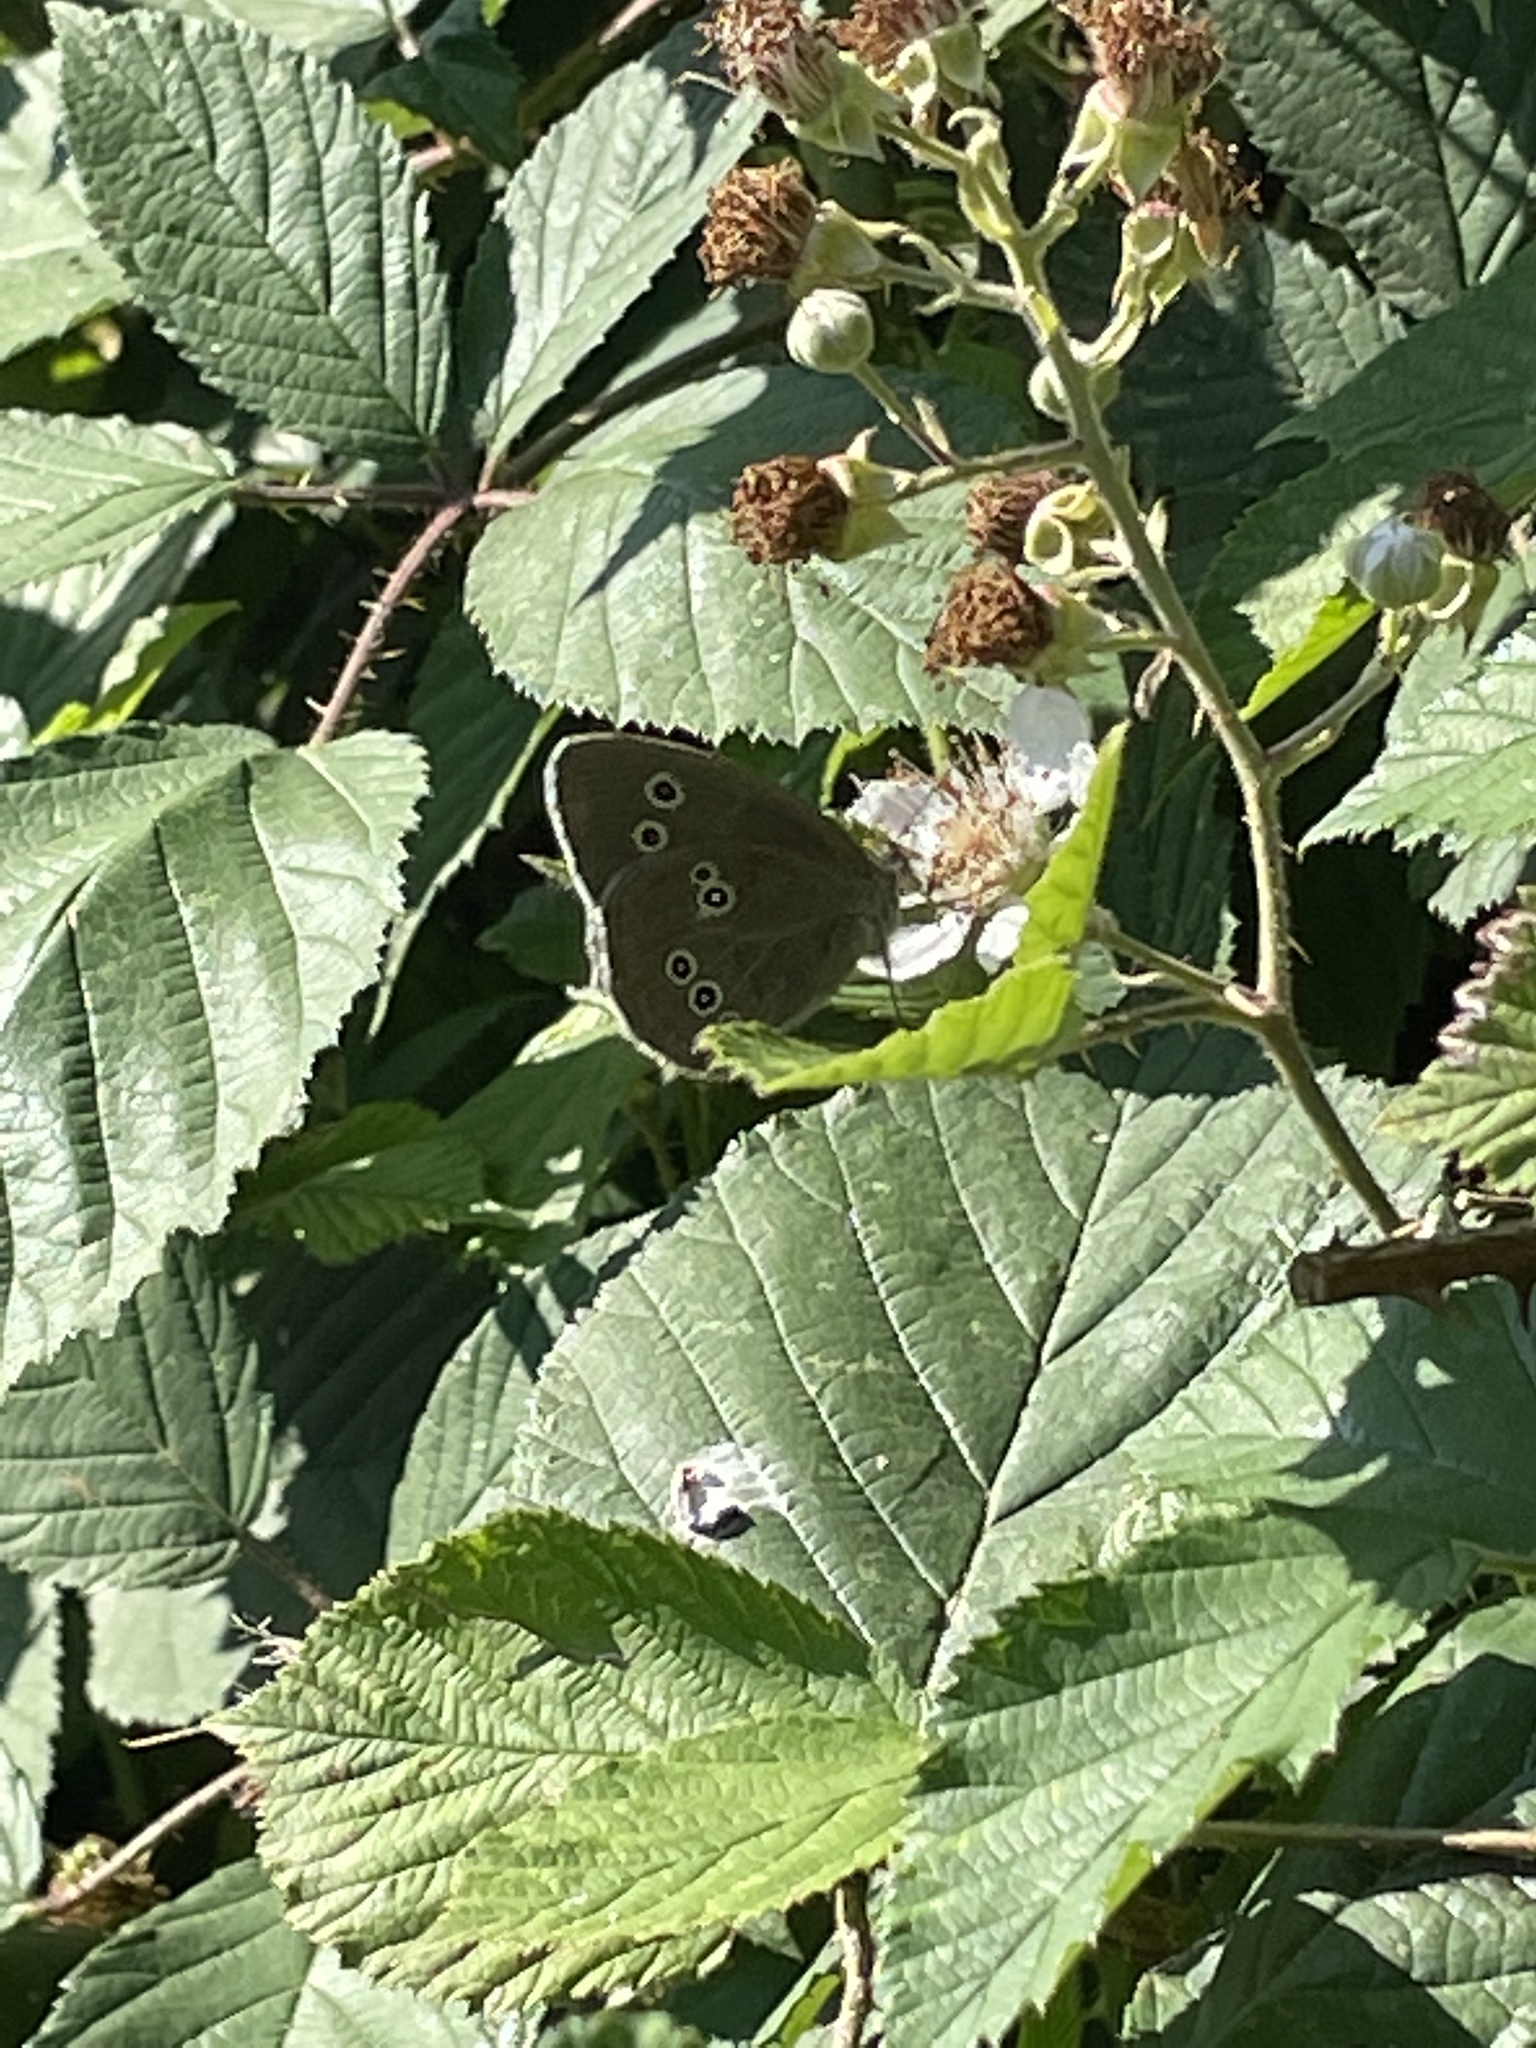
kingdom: Animalia
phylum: Arthropoda
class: Insecta
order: Lepidoptera
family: Nymphalidae
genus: Aphantopus
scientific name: Aphantopus hyperantus
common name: Ringlet
